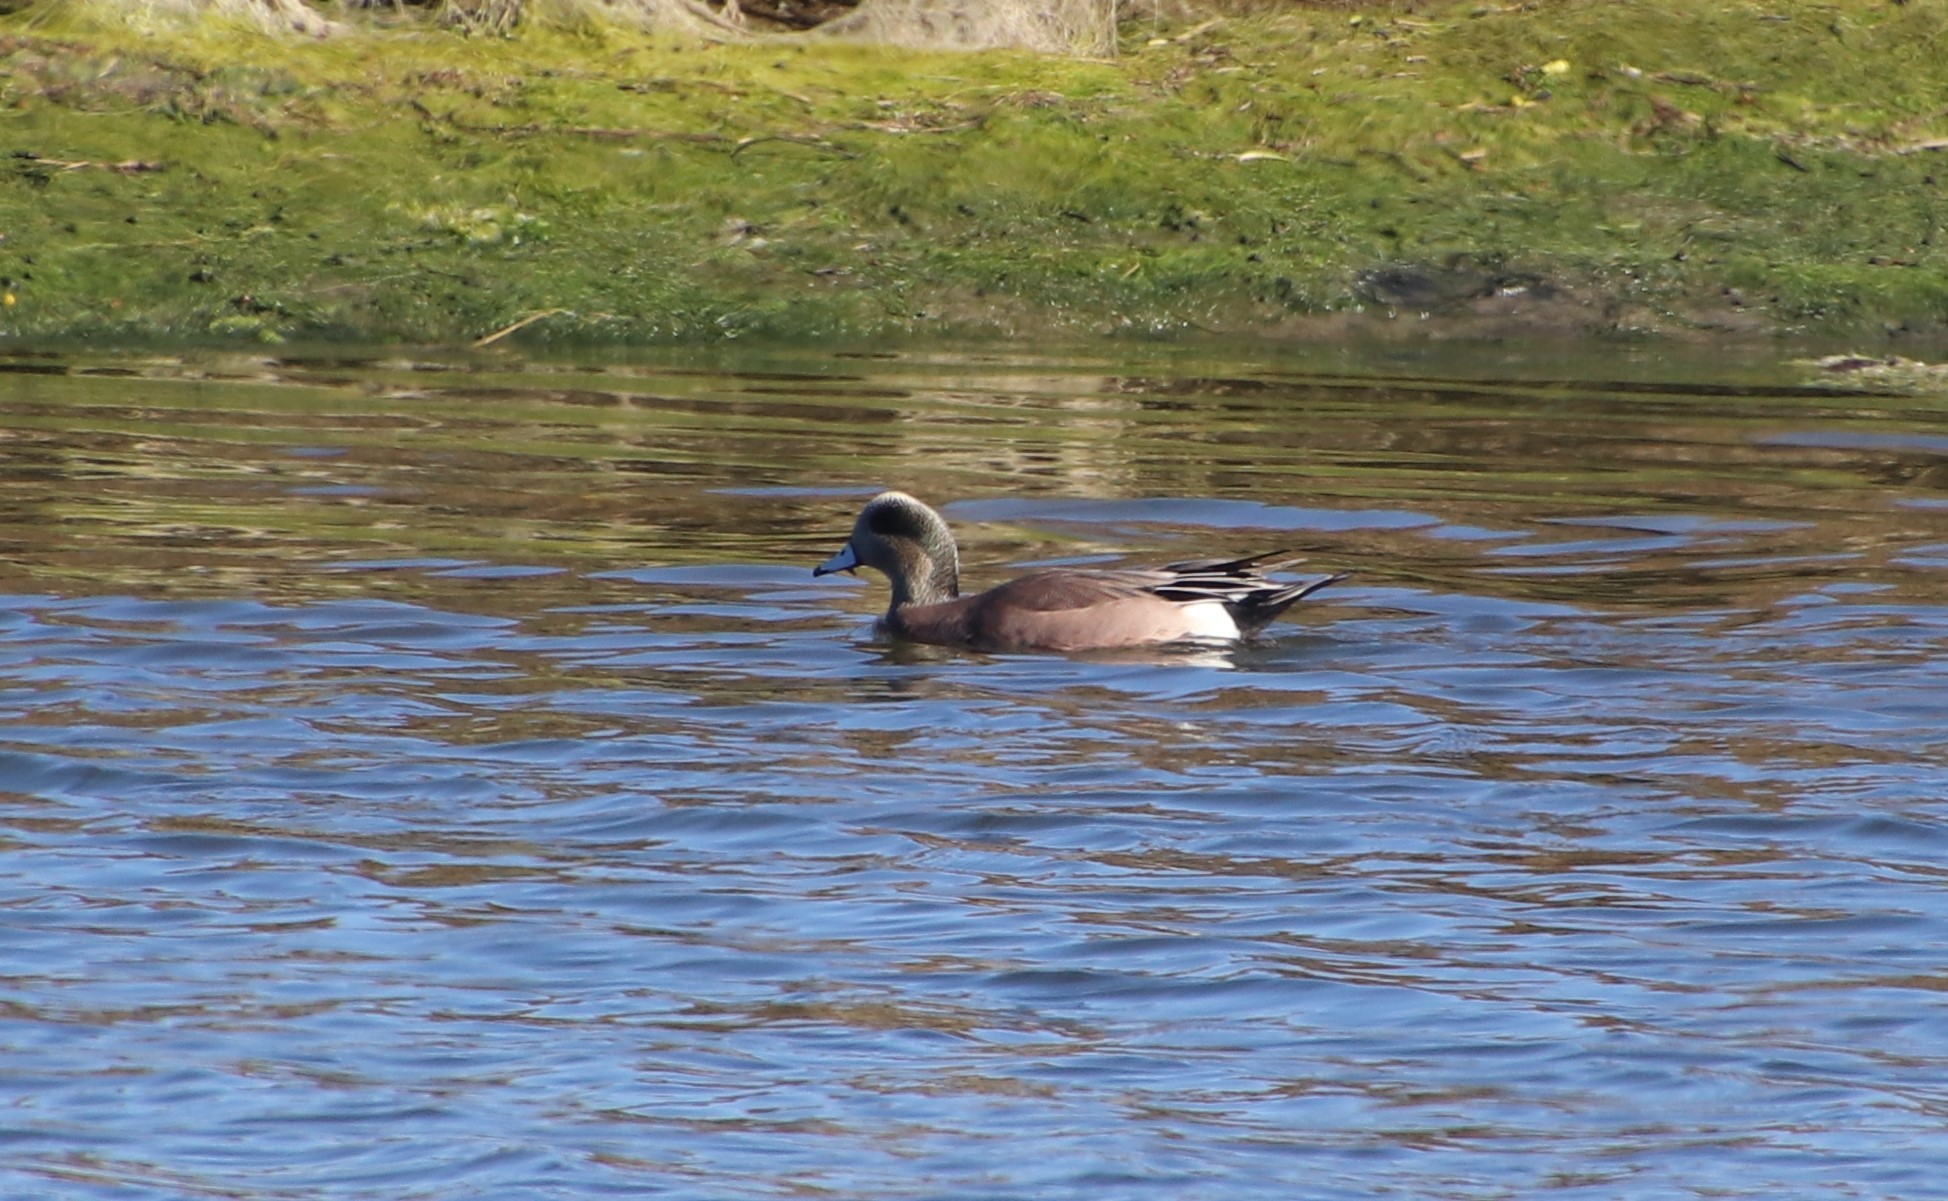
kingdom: Animalia
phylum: Chordata
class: Aves
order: Anseriformes
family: Anatidae
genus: Mareca
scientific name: Mareca americana
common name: American wigeon
